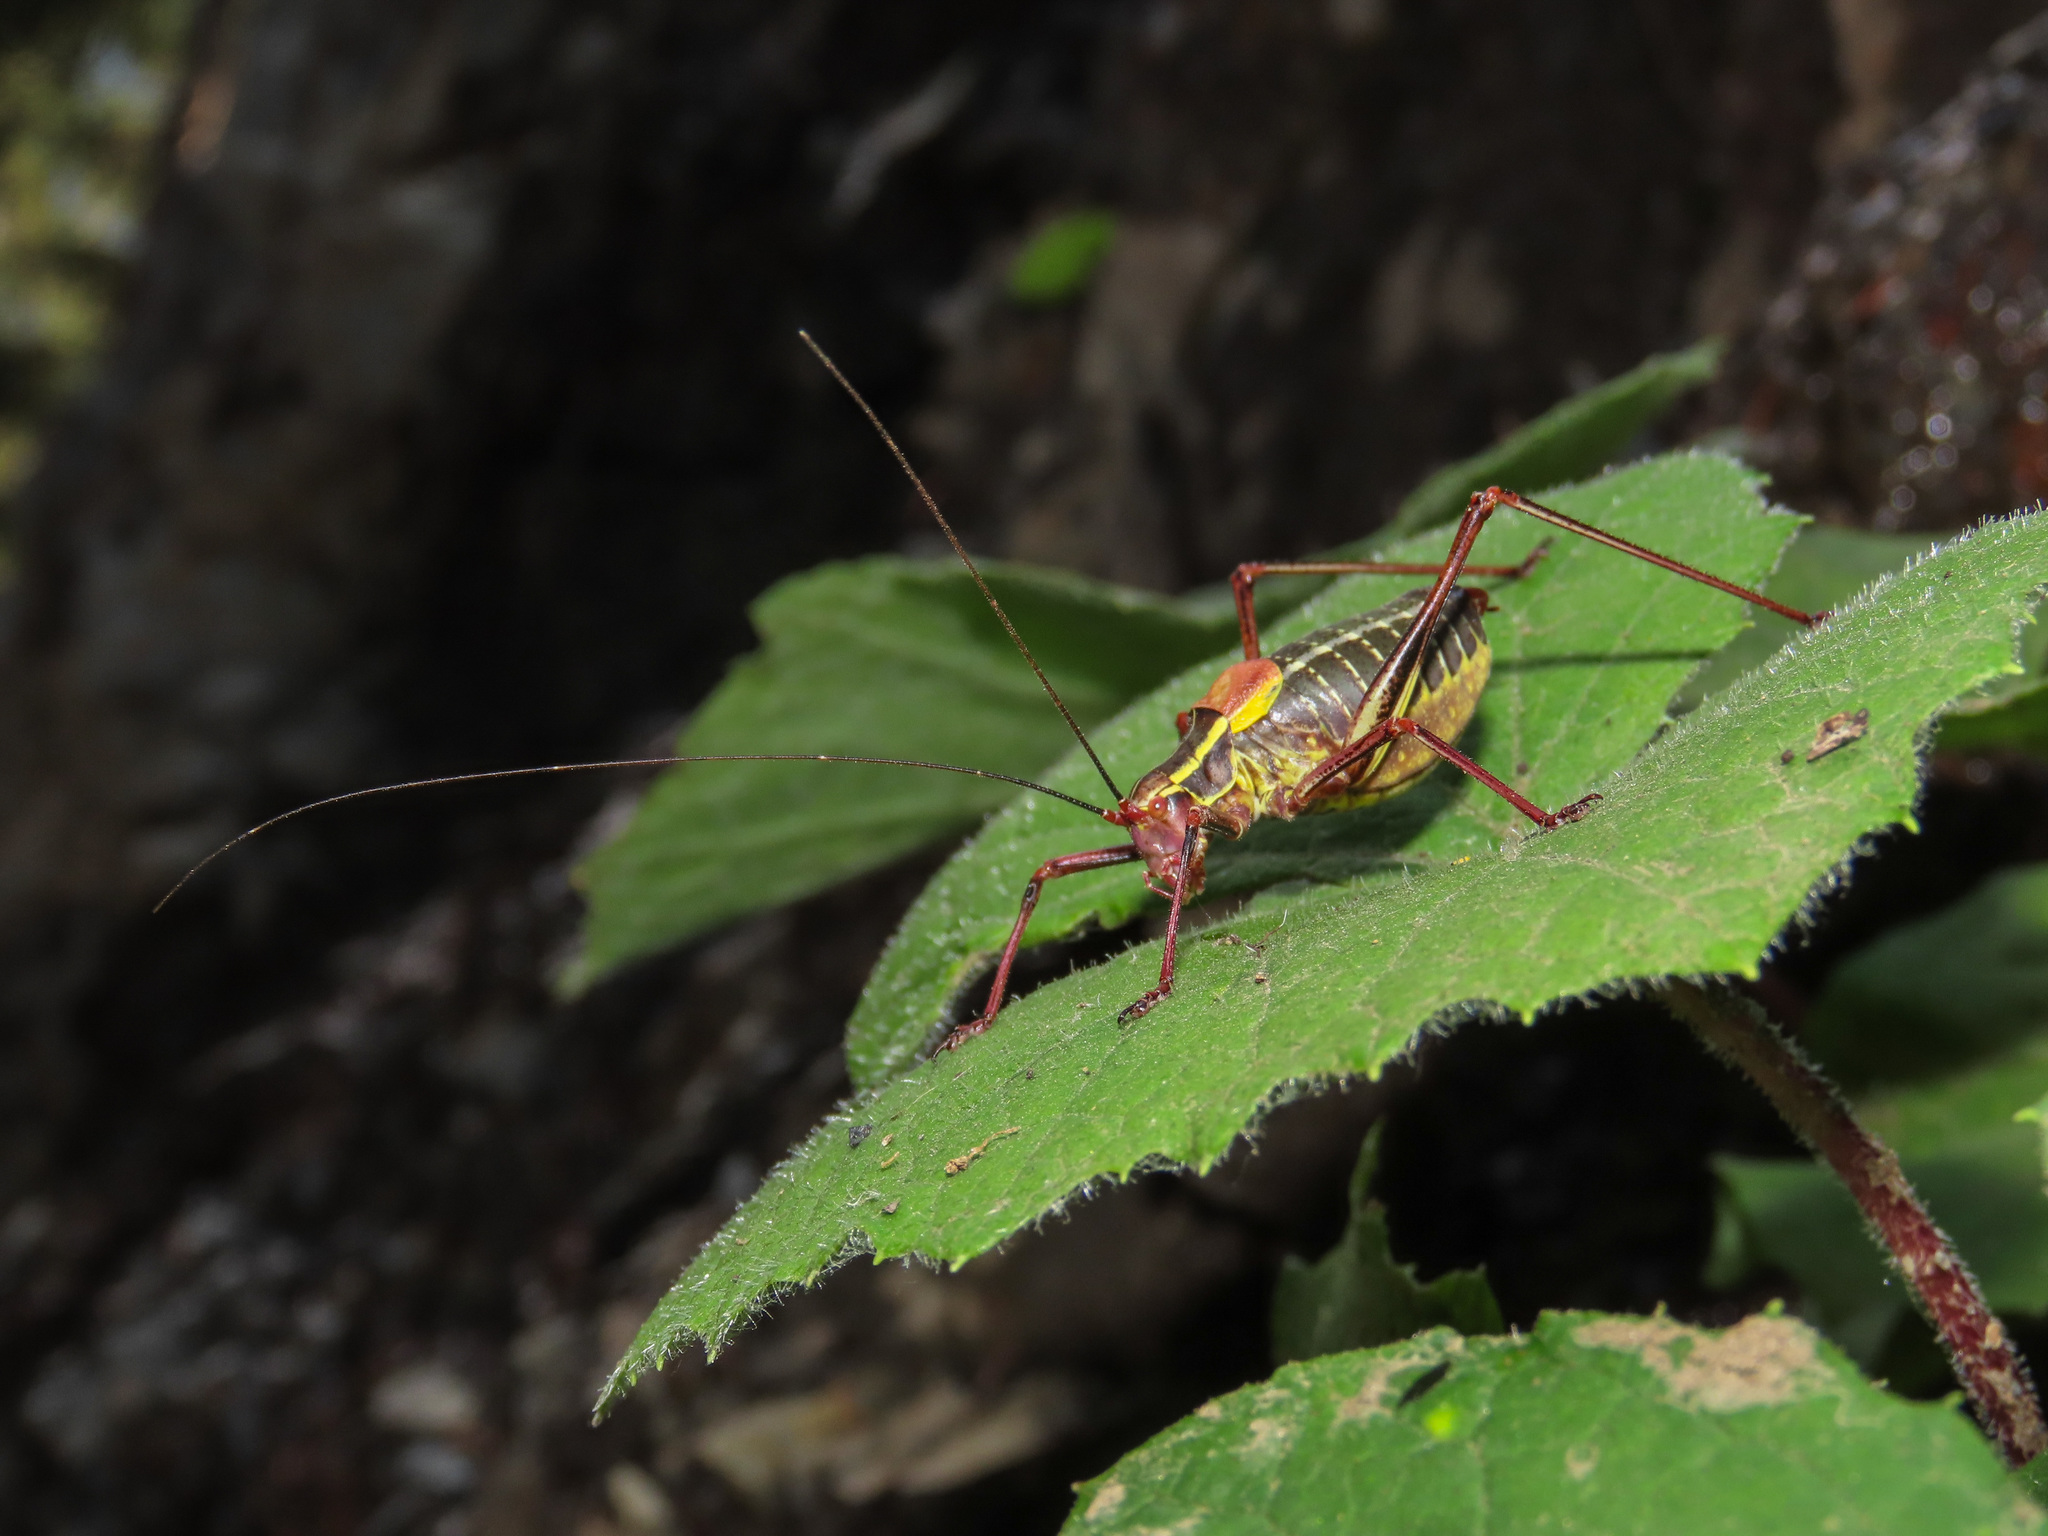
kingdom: Animalia
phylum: Arthropoda
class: Insecta
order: Orthoptera
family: Tettigoniidae
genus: Barbitistes
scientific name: Barbitistes obtusus
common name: Alpine saw bush-cricket
